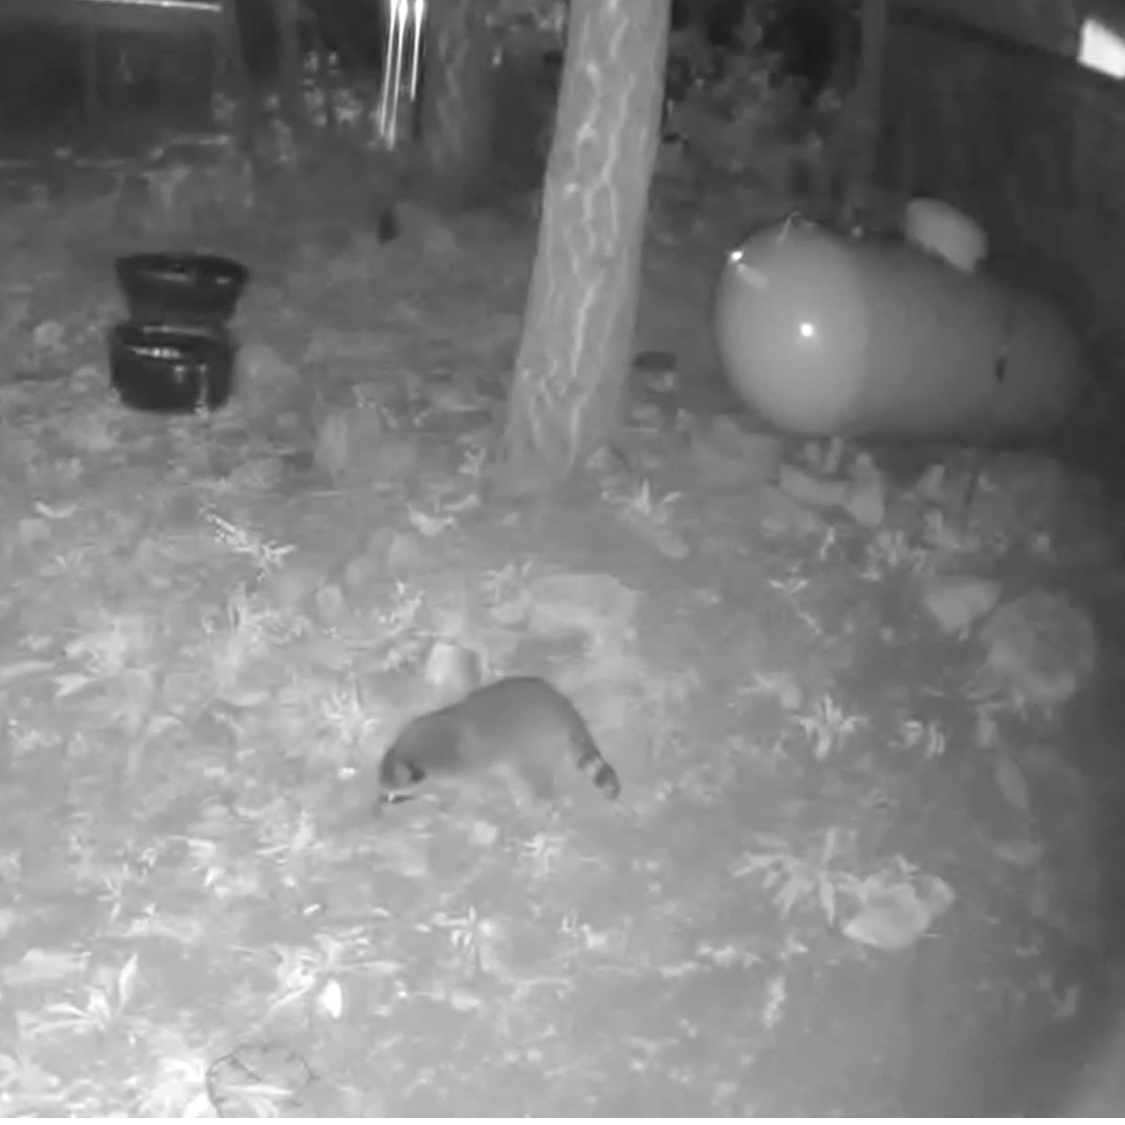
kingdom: Animalia
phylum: Chordata
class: Mammalia
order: Carnivora
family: Procyonidae
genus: Procyon
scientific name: Procyon lotor
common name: Raccoon
